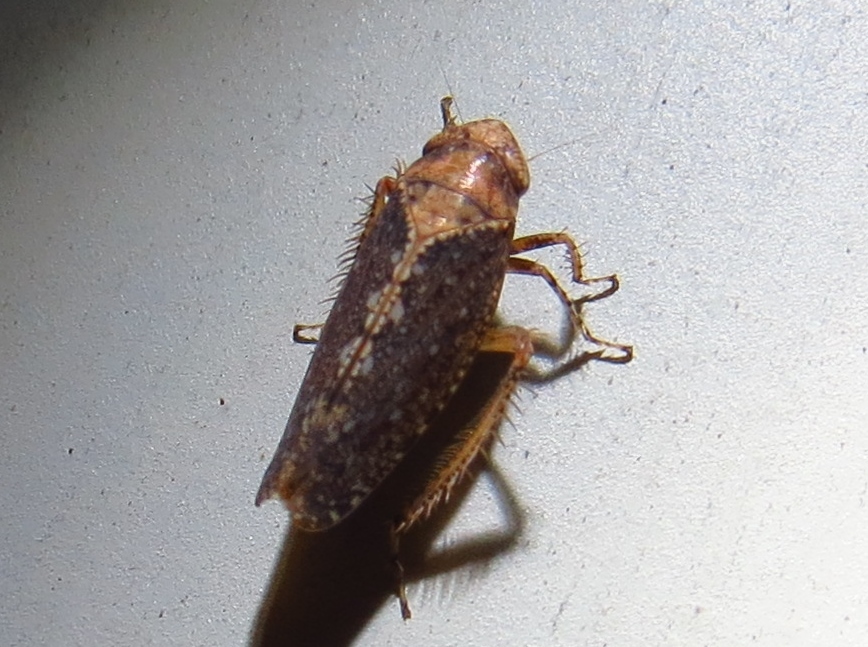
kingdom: Animalia
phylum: Arthropoda
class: Insecta
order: Hemiptera
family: Cicadellidae
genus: Excultanus
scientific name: Excultanus excultus
